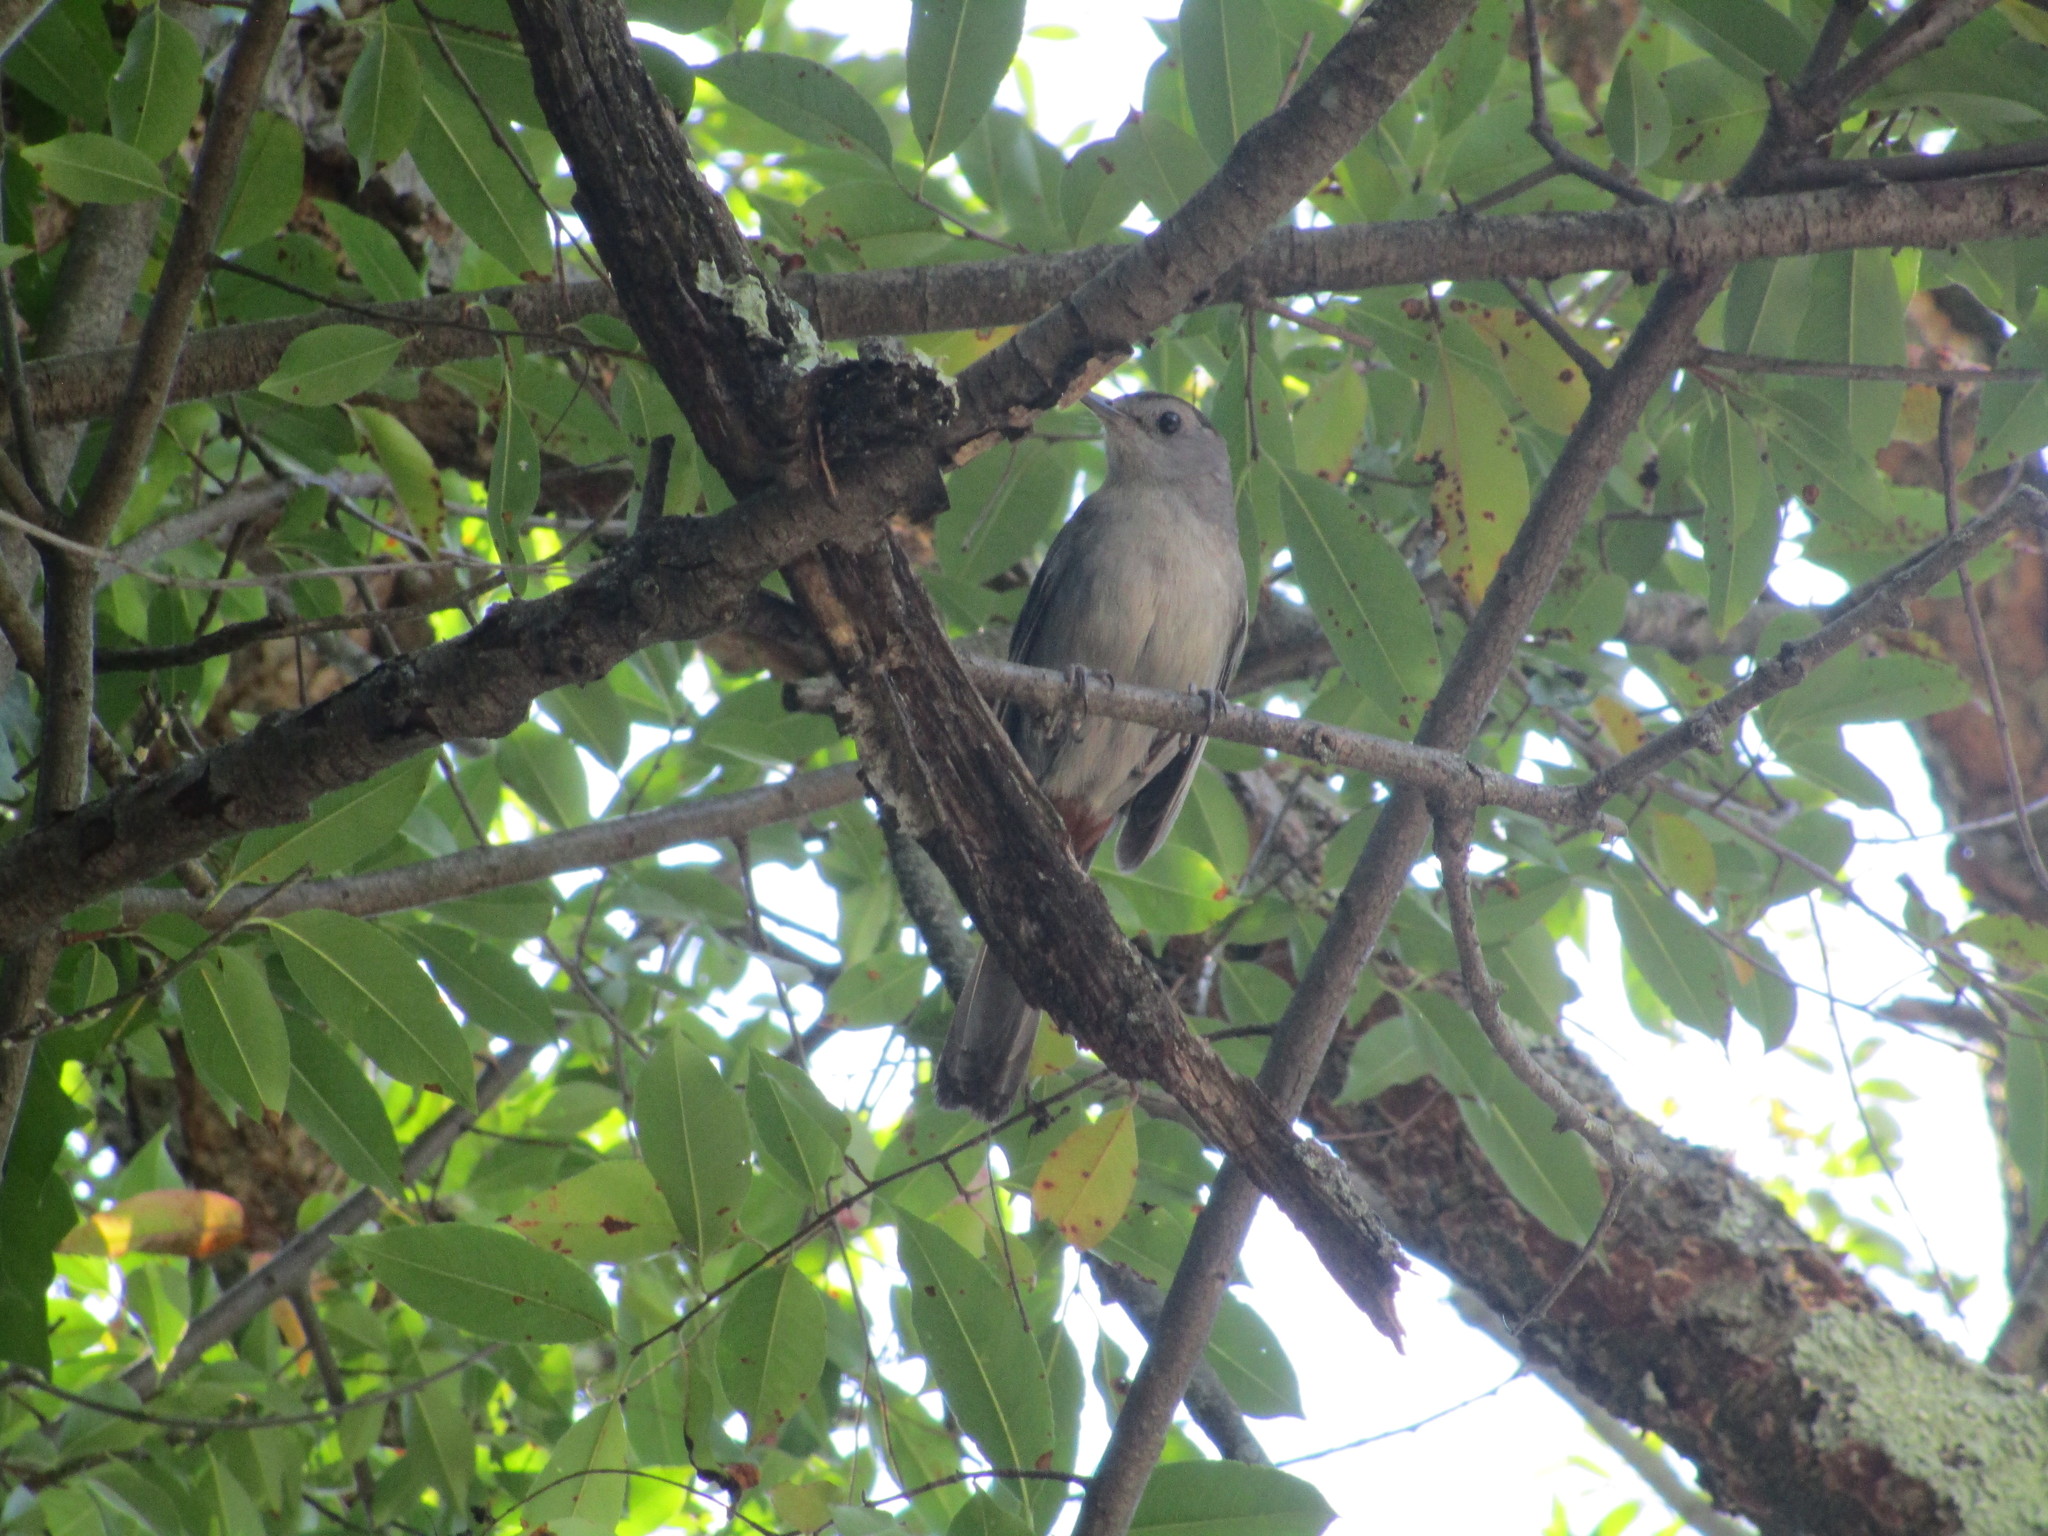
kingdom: Animalia
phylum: Chordata
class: Aves
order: Passeriformes
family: Mimidae
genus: Dumetella
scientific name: Dumetella carolinensis
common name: Gray catbird
